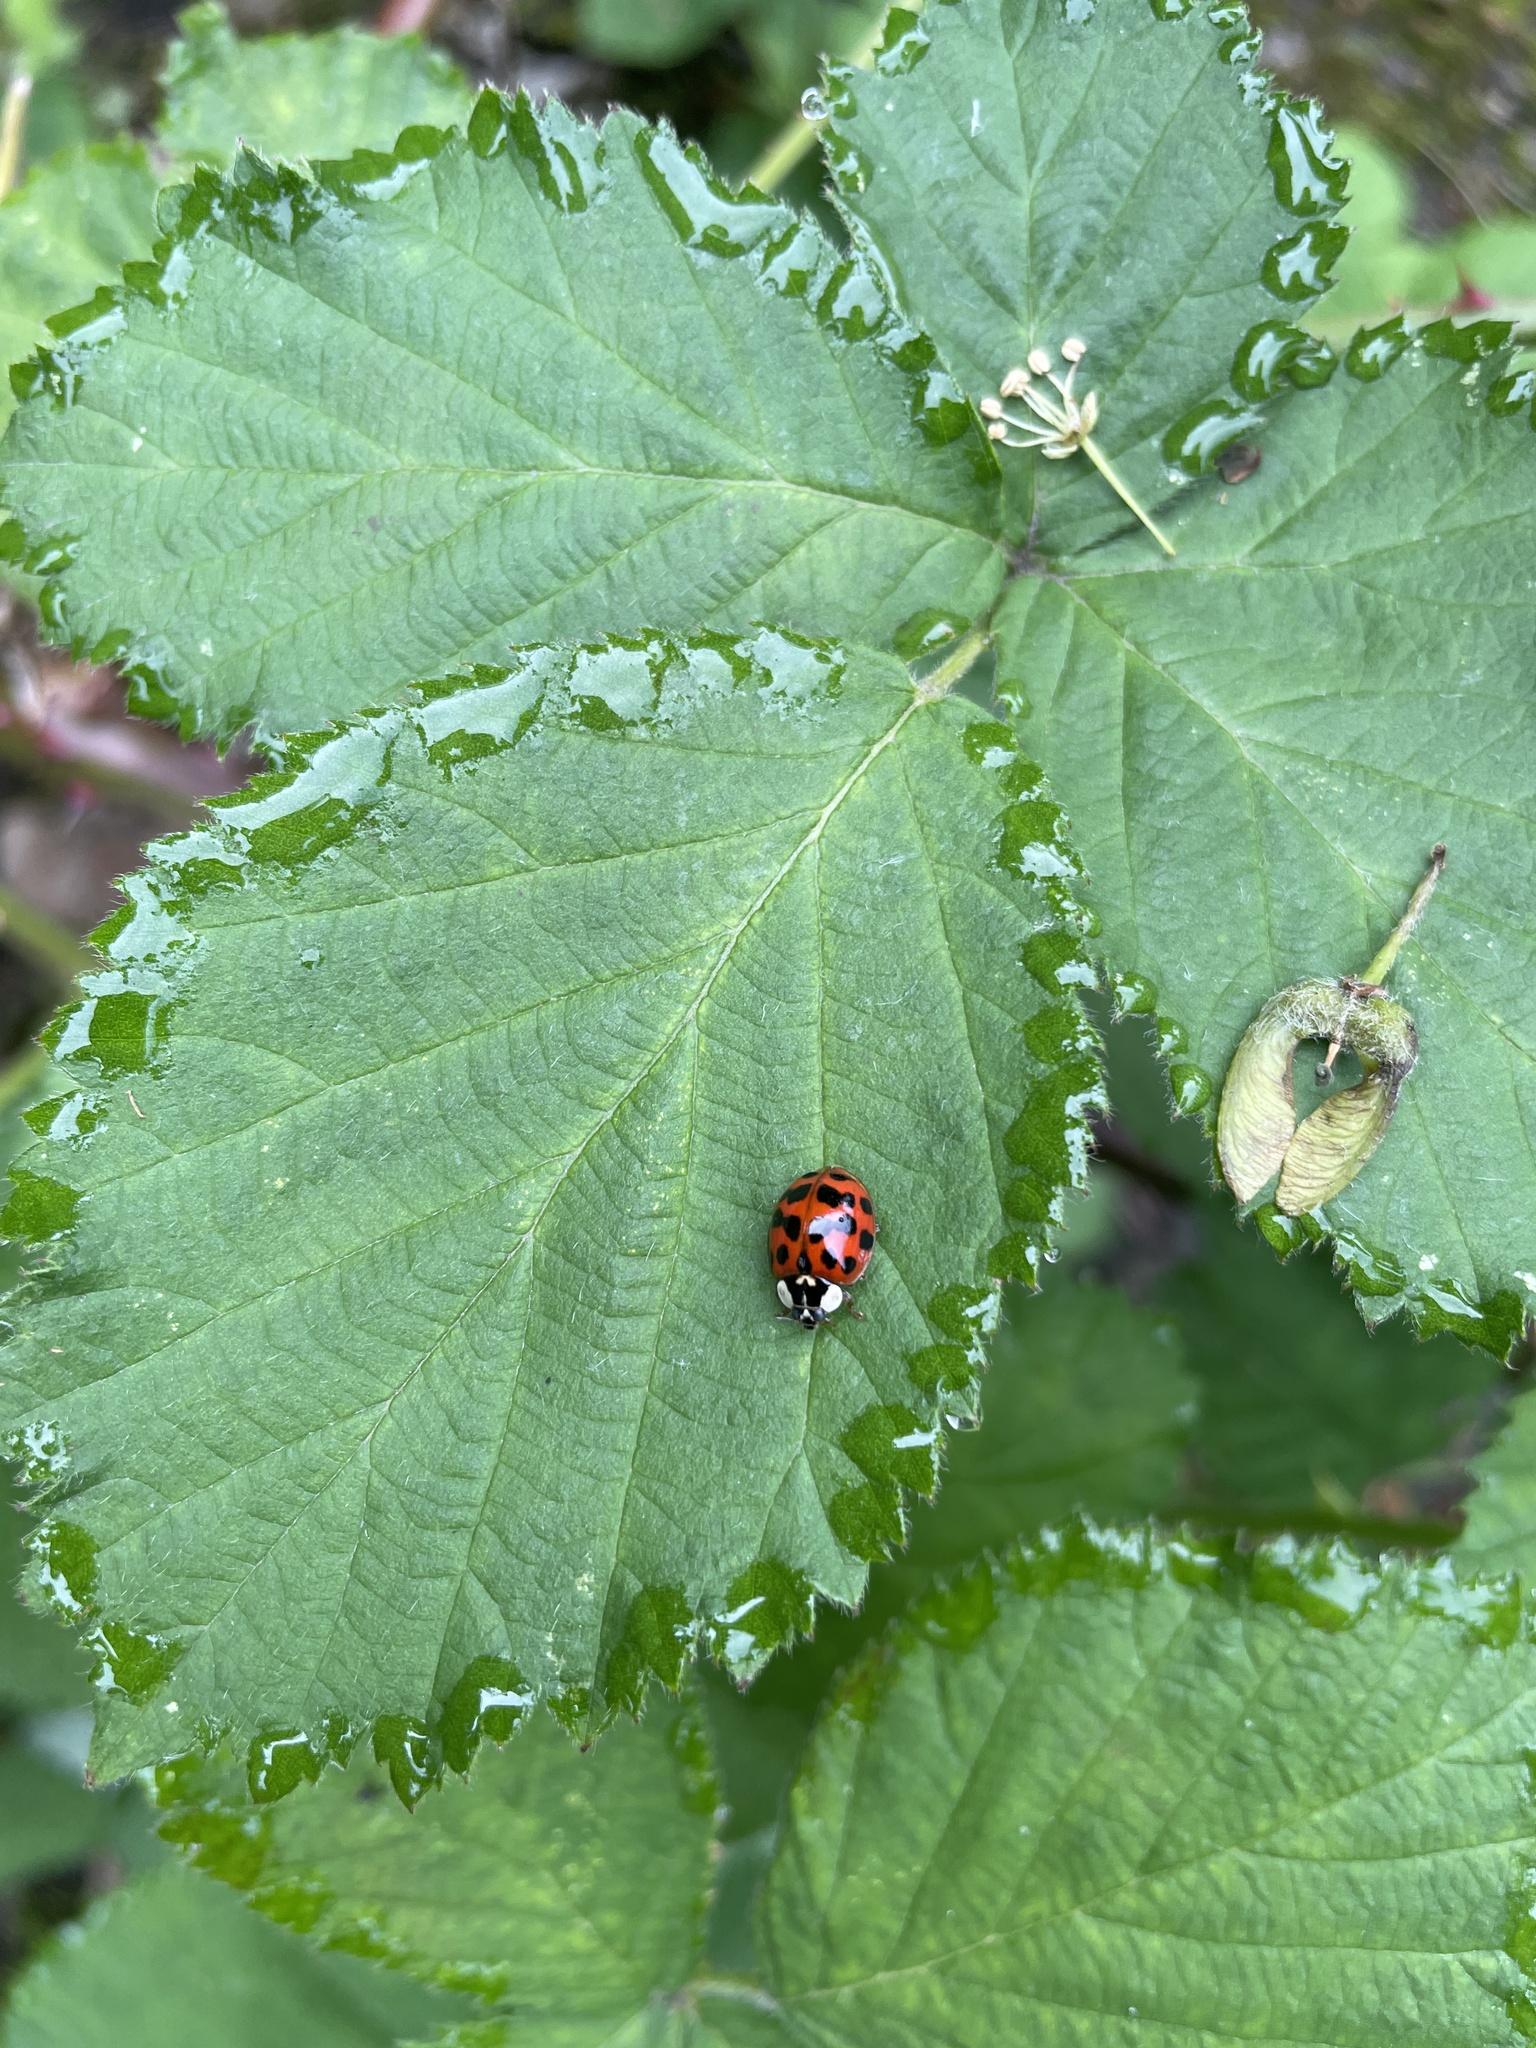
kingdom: Animalia
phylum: Arthropoda
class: Insecta
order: Coleoptera
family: Coccinellidae
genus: Harmonia
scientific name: Harmonia axyridis
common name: Harlequin ladybird
